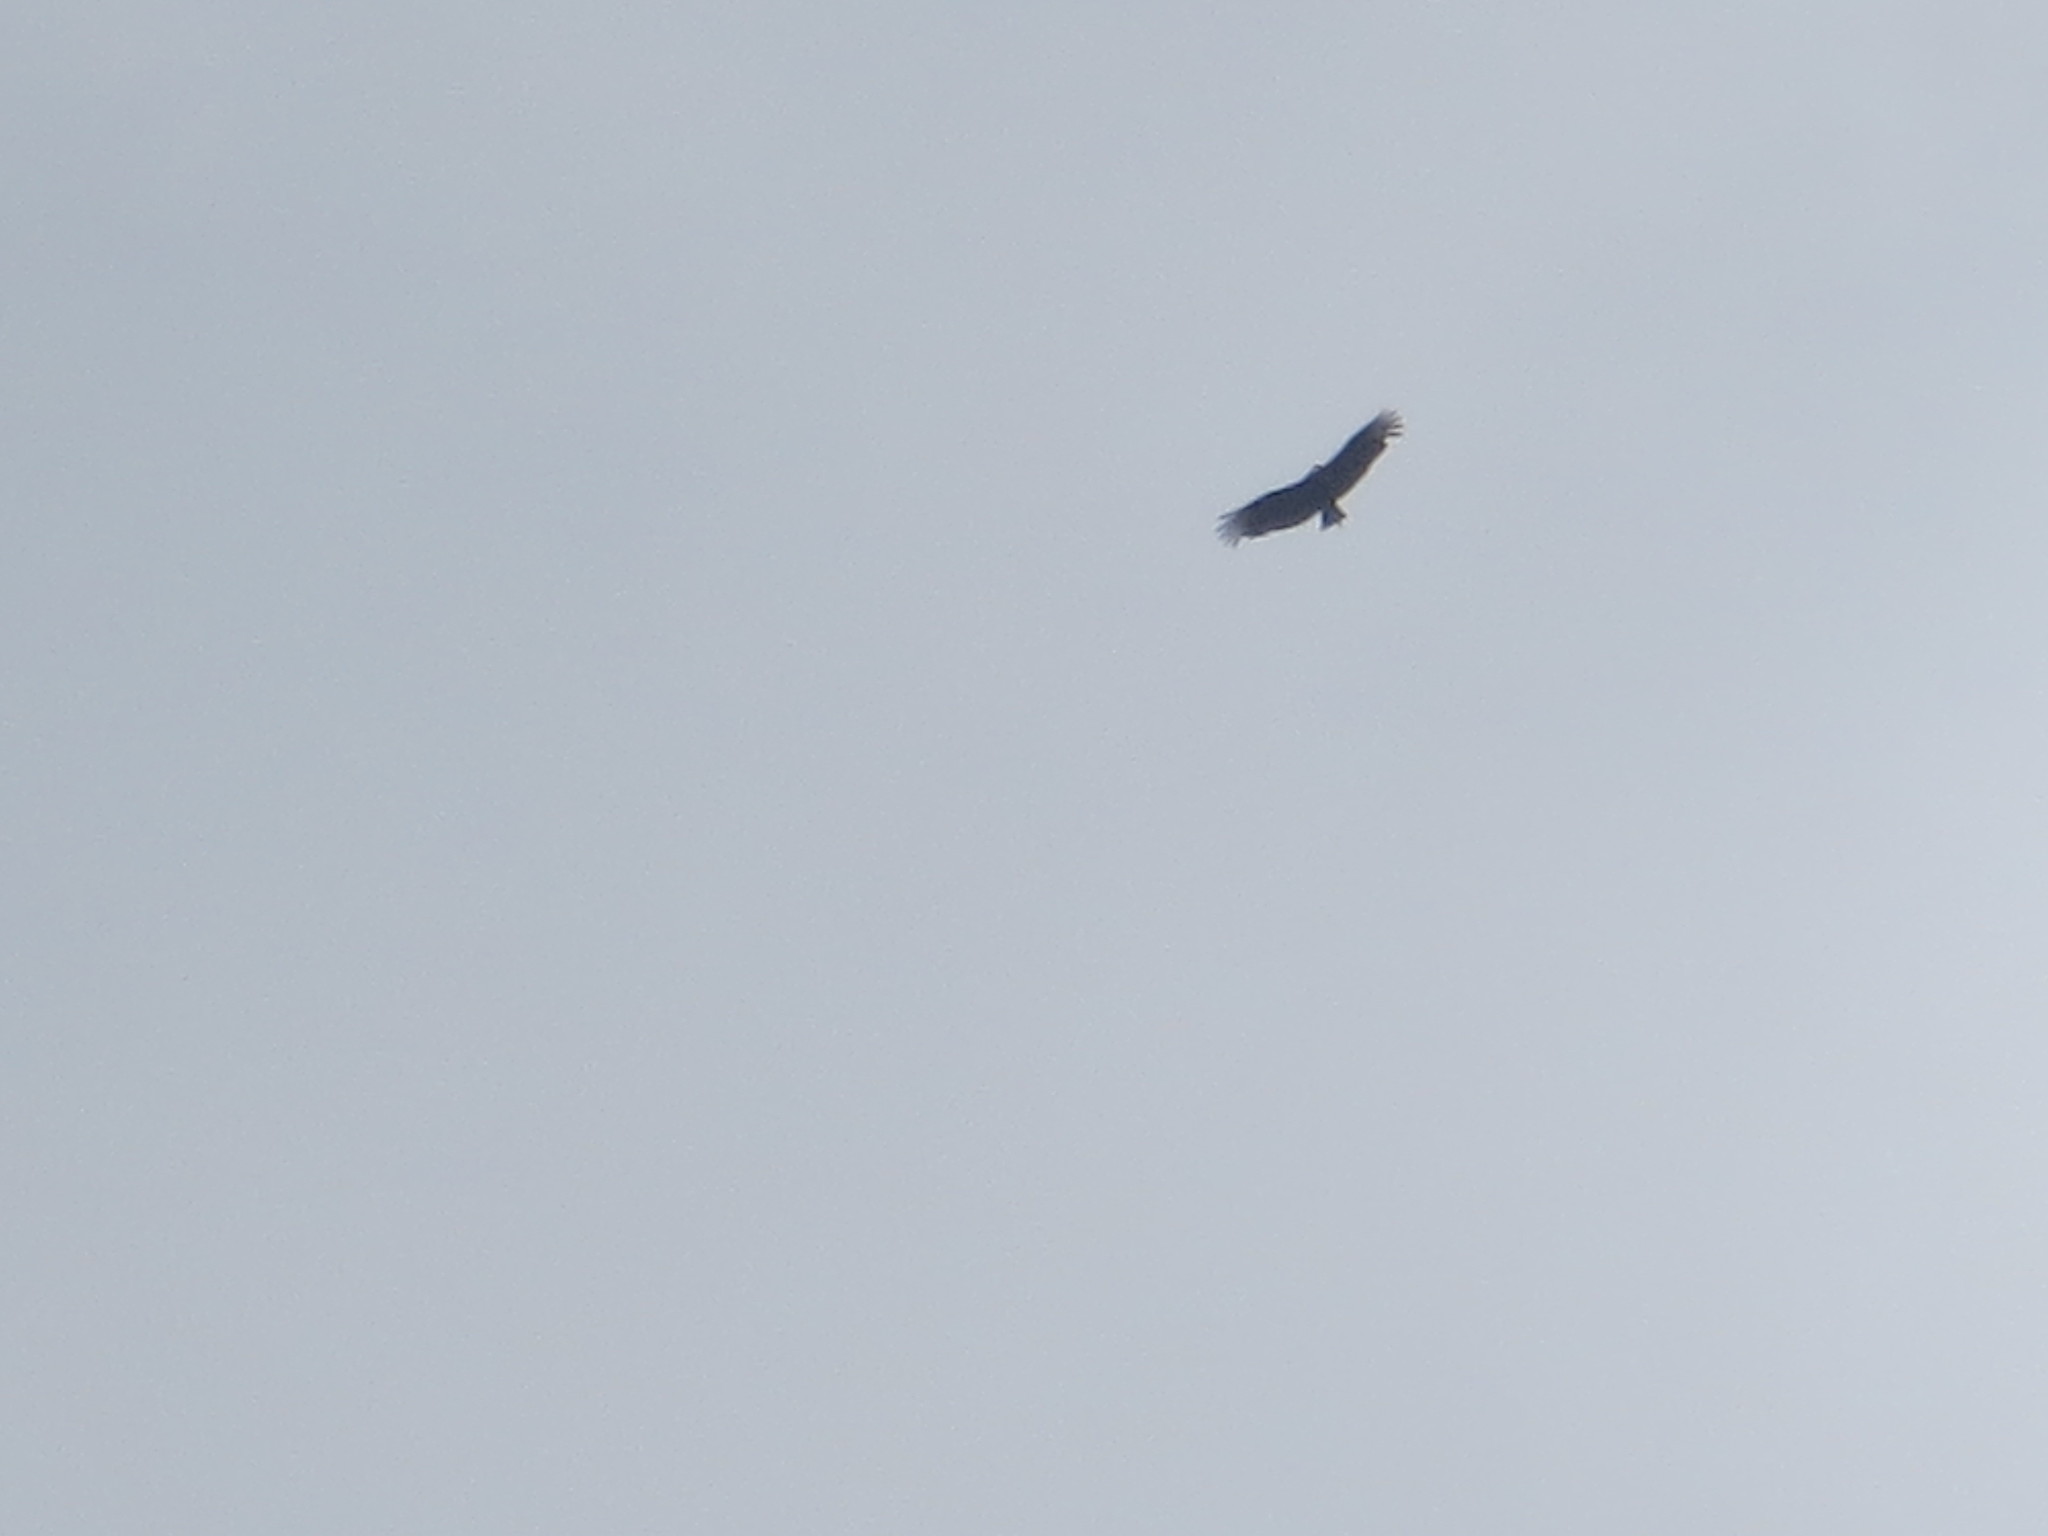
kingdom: Animalia
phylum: Chordata
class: Aves
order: Accipitriformes
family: Cathartidae
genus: Coragyps
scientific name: Coragyps atratus
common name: Black vulture
